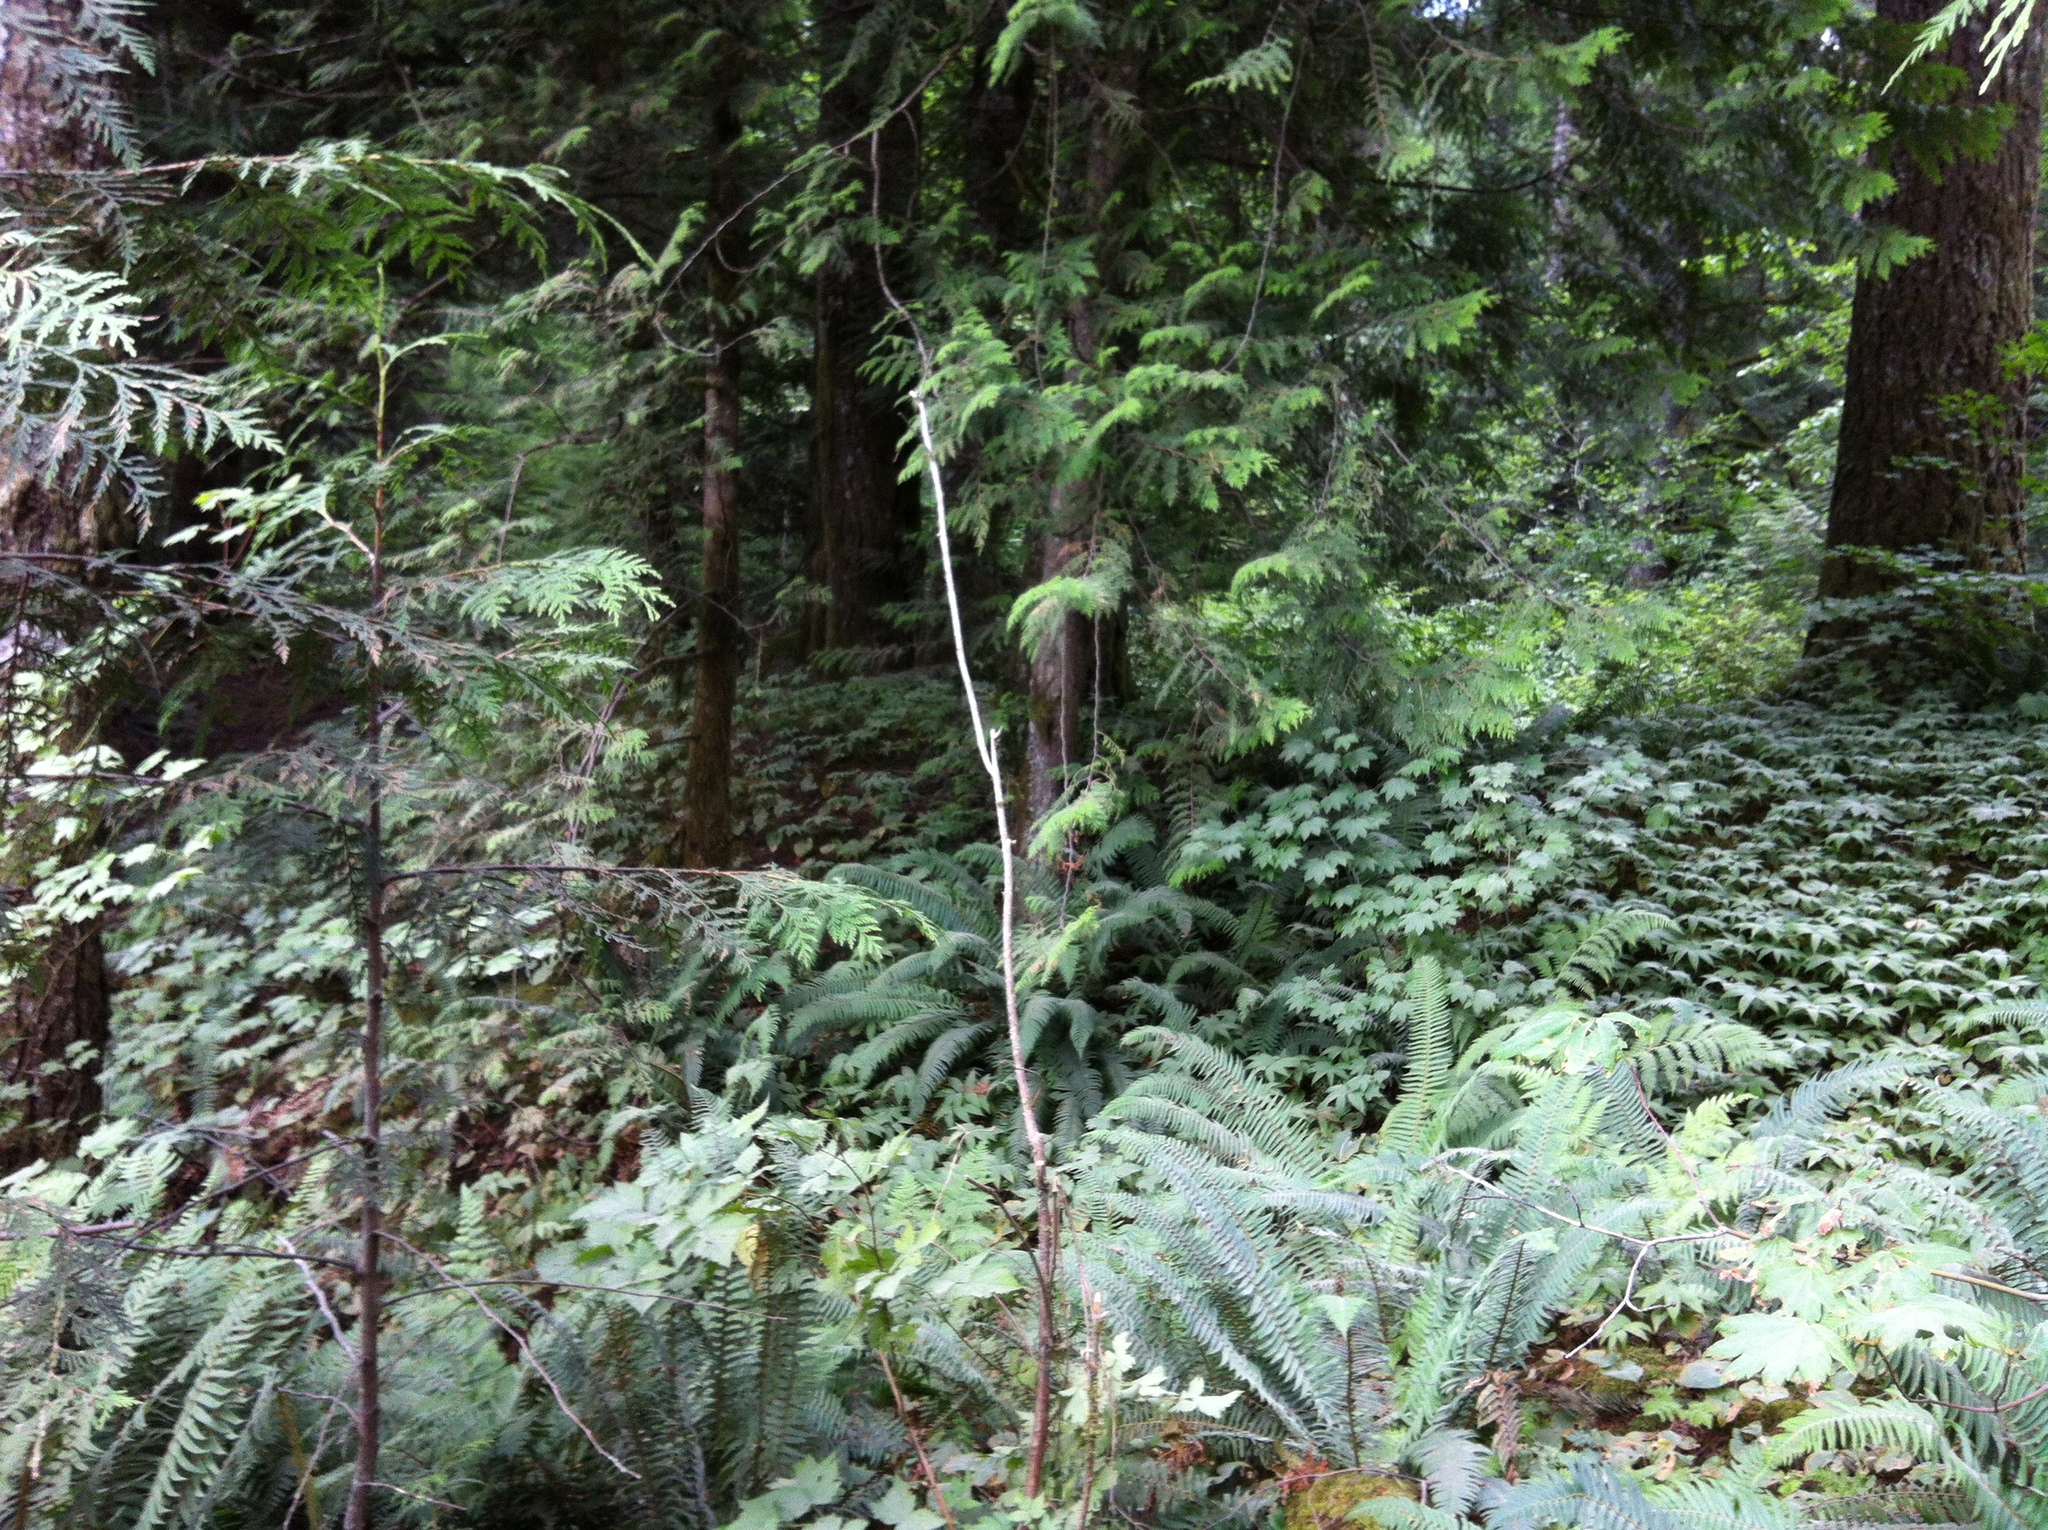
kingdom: Plantae
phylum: Tracheophyta
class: Polypodiopsida
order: Polypodiales
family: Dryopteridaceae
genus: Polystichum
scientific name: Polystichum munitum
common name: Western sword-fern
